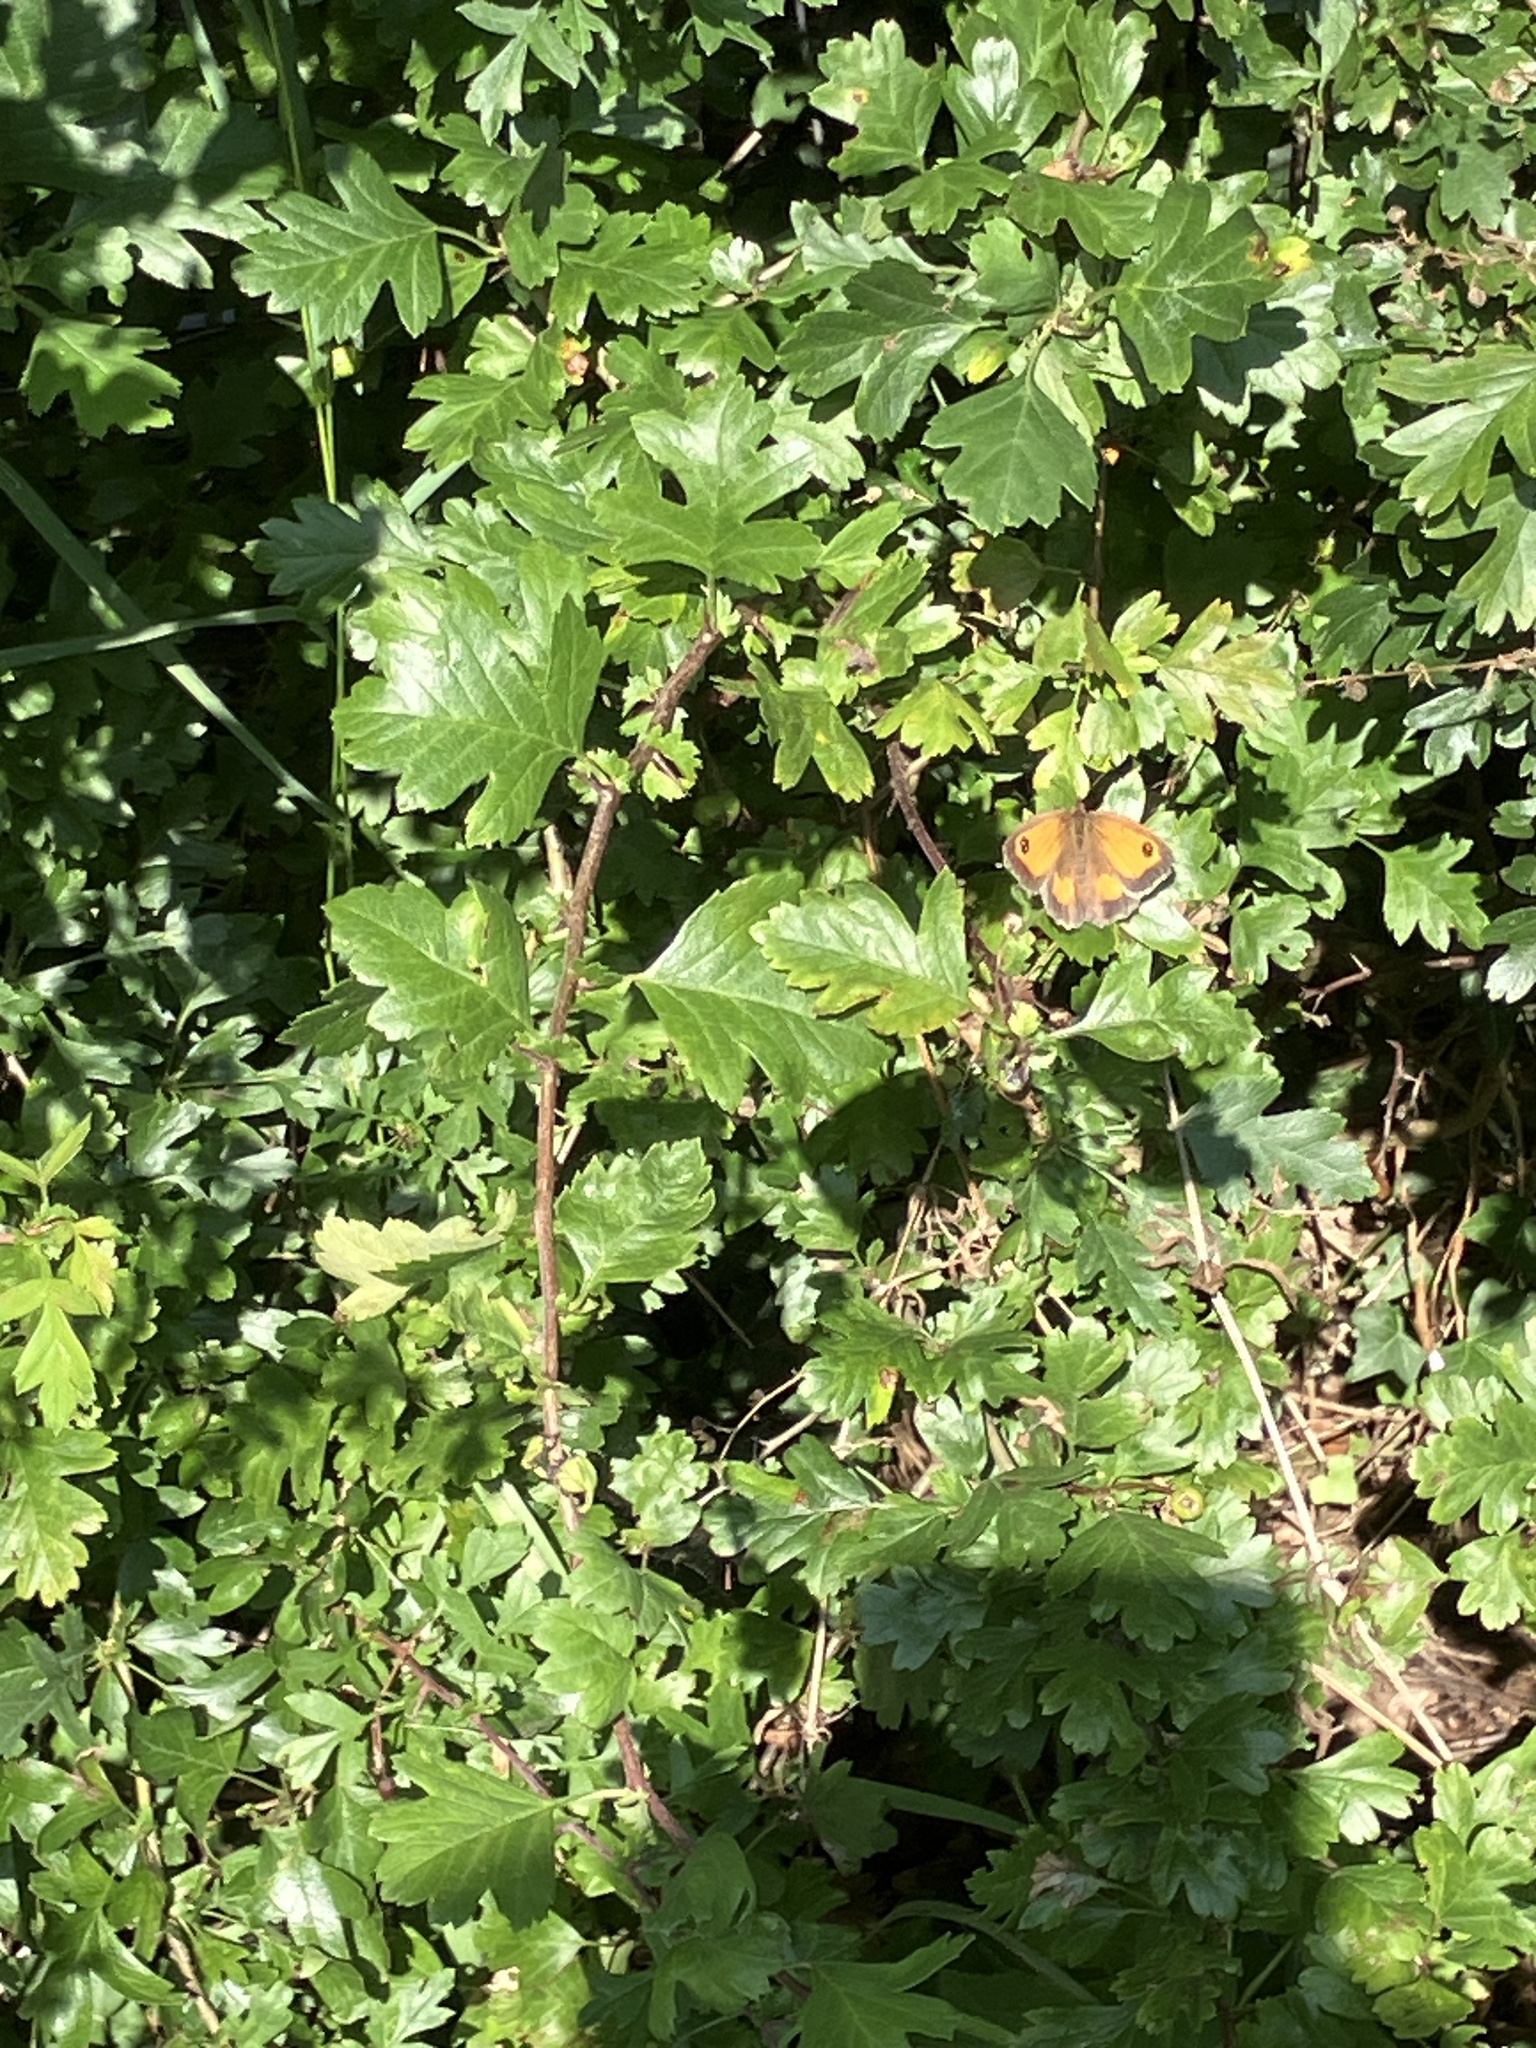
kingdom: Animalia
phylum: Arthropoda
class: Insecta
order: Lepidoptera
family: Nymphalidae
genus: Pyronia
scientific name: Pyronia tithonus
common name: Gatekeeper
